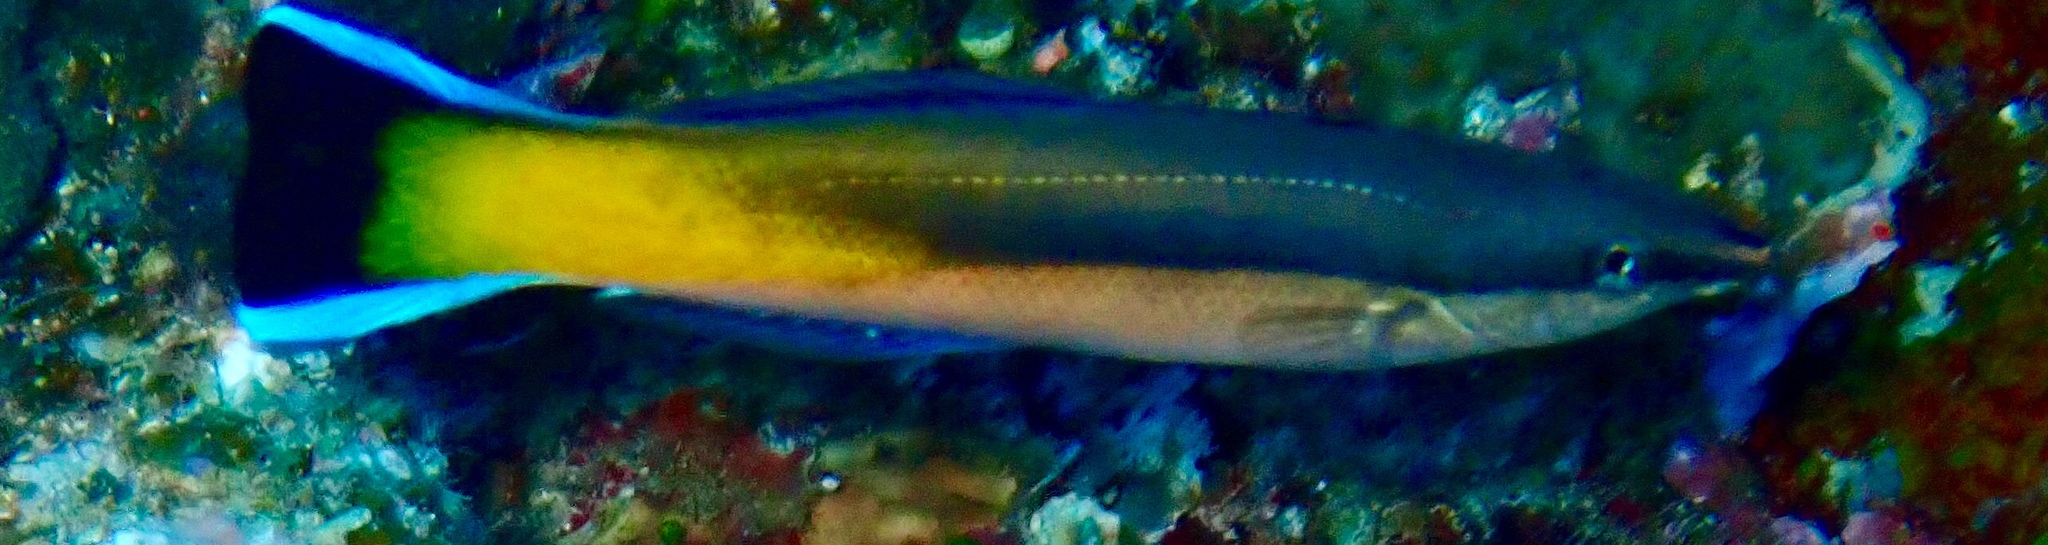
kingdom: Animalia
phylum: Chordata
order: Perciformes
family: Labridae
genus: Labroides
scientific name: Labroides dimidiatus
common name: Blue diesel wrasse
